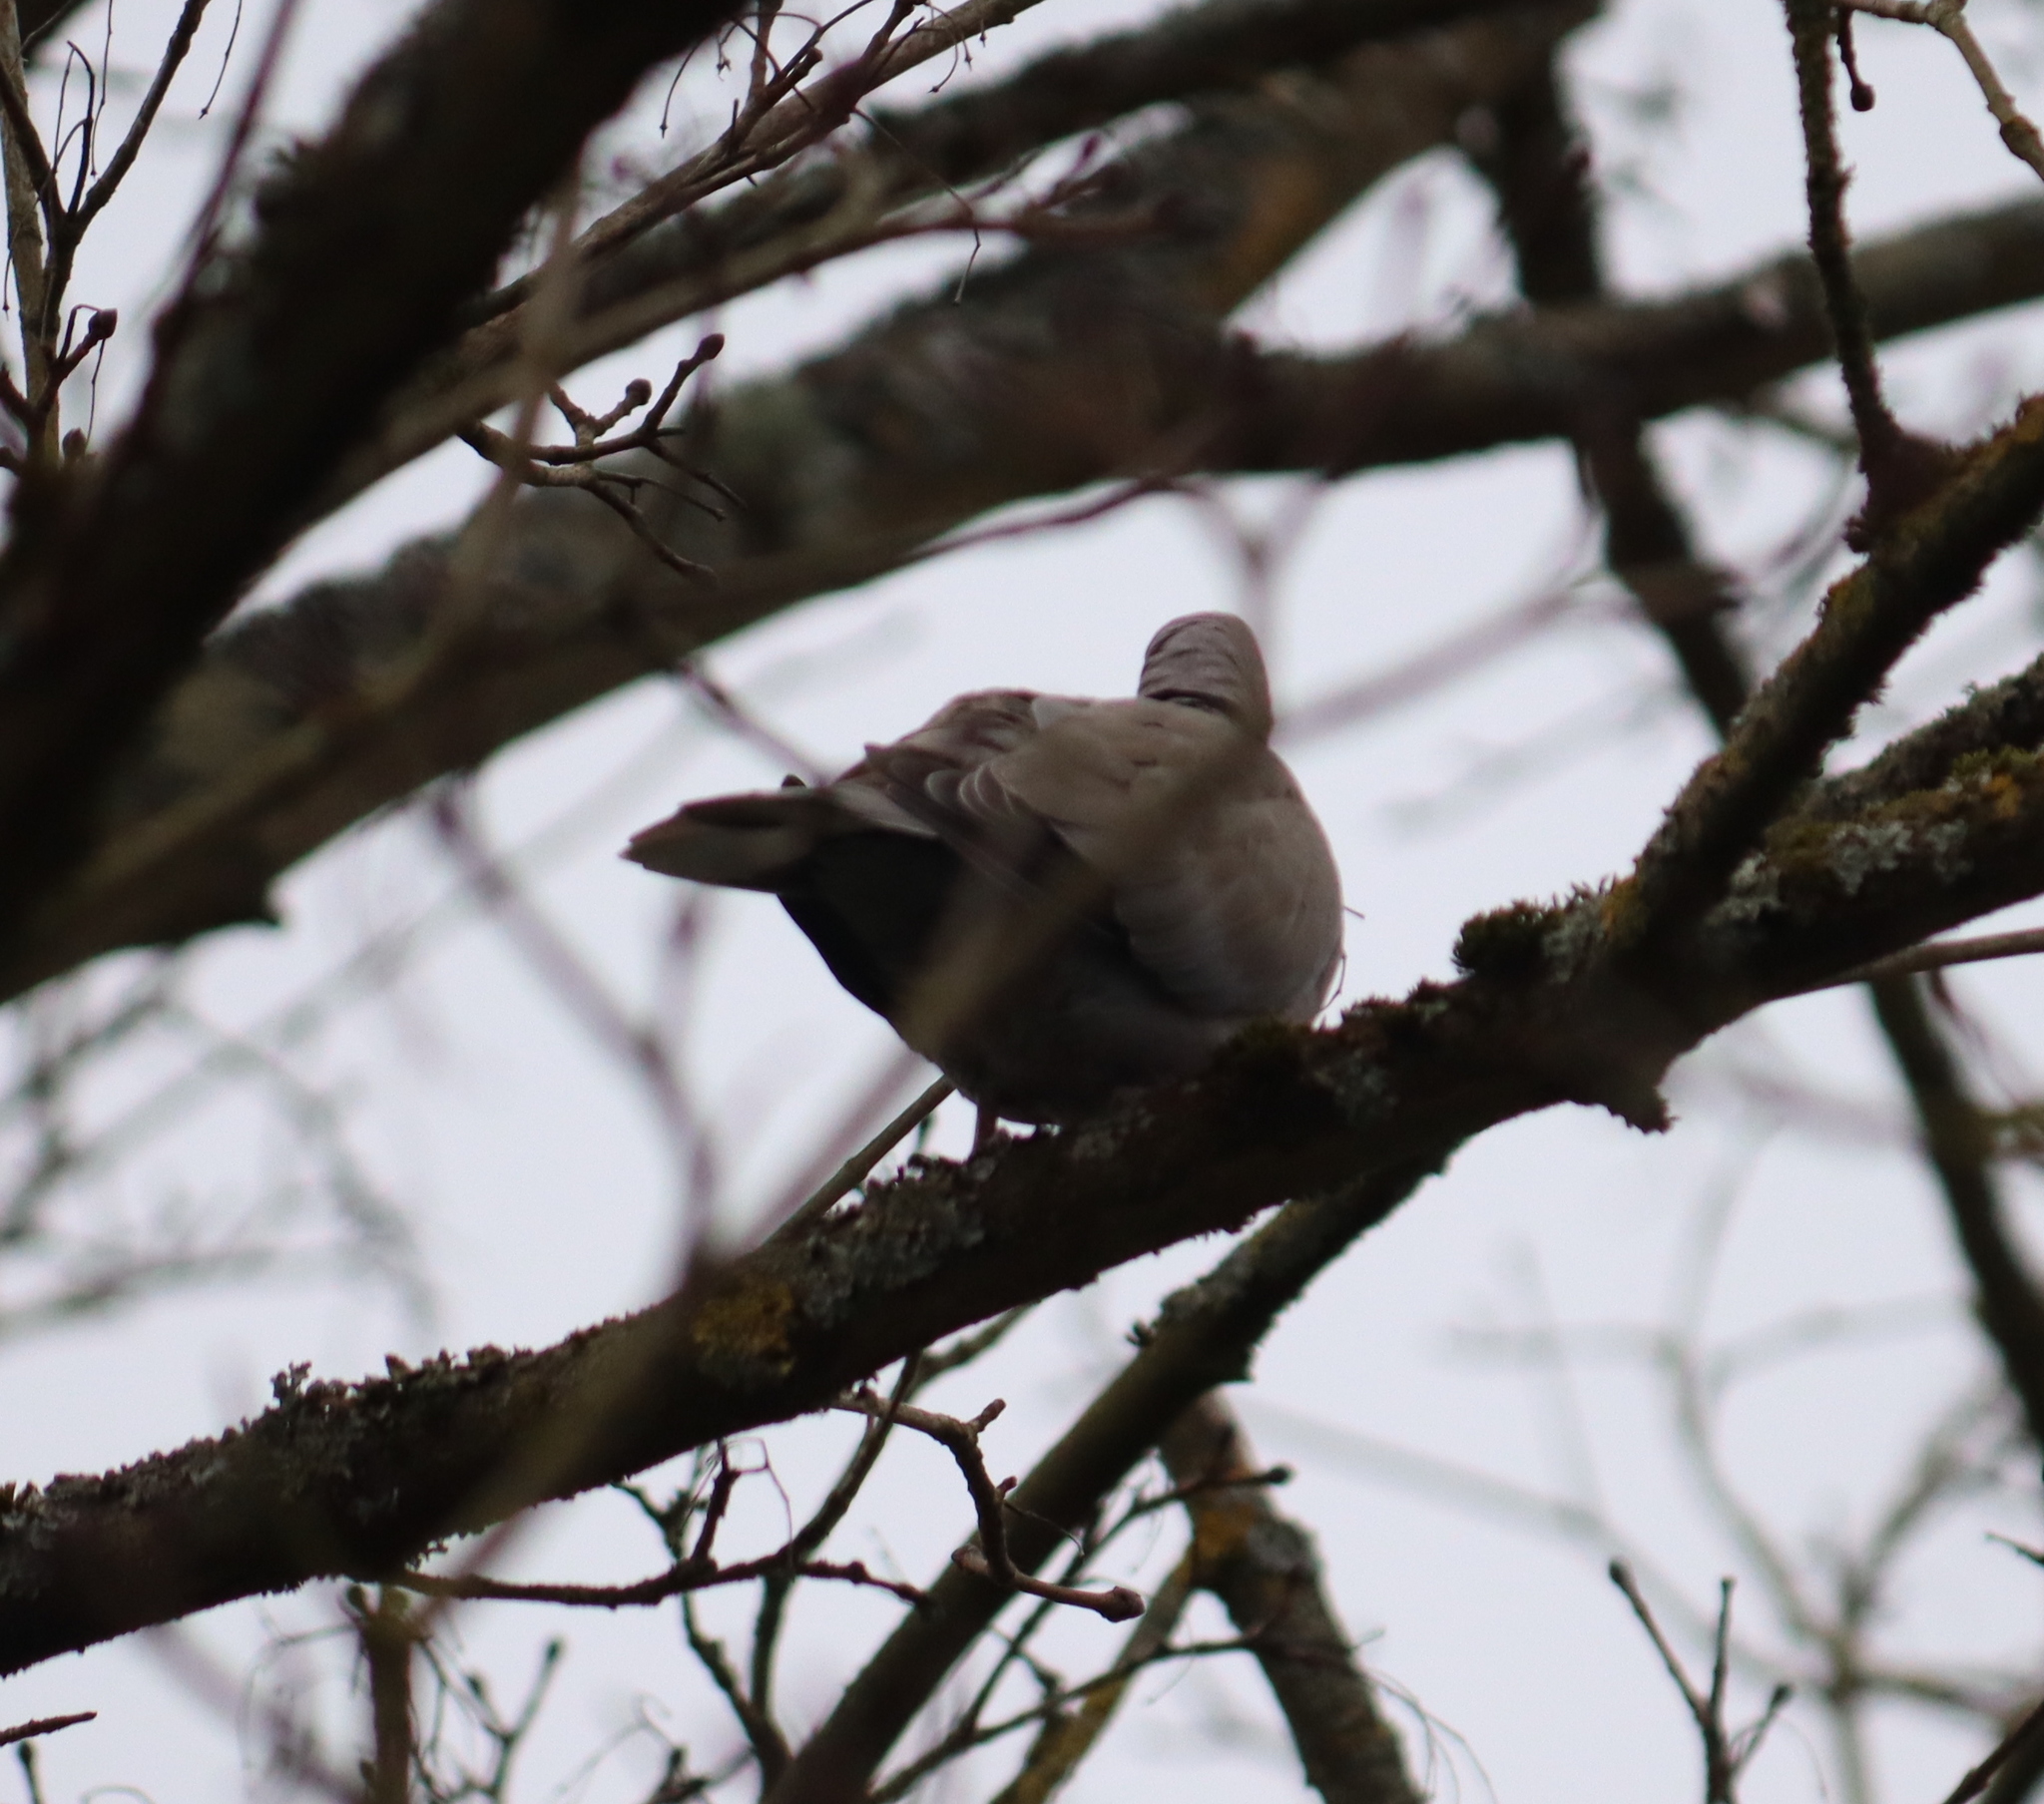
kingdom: Animalia
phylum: Chordata
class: Aves
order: Columbiformes
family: Columbidae
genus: Streptopelia
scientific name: Streptopelia decaocto
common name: Eurasian collared dove
